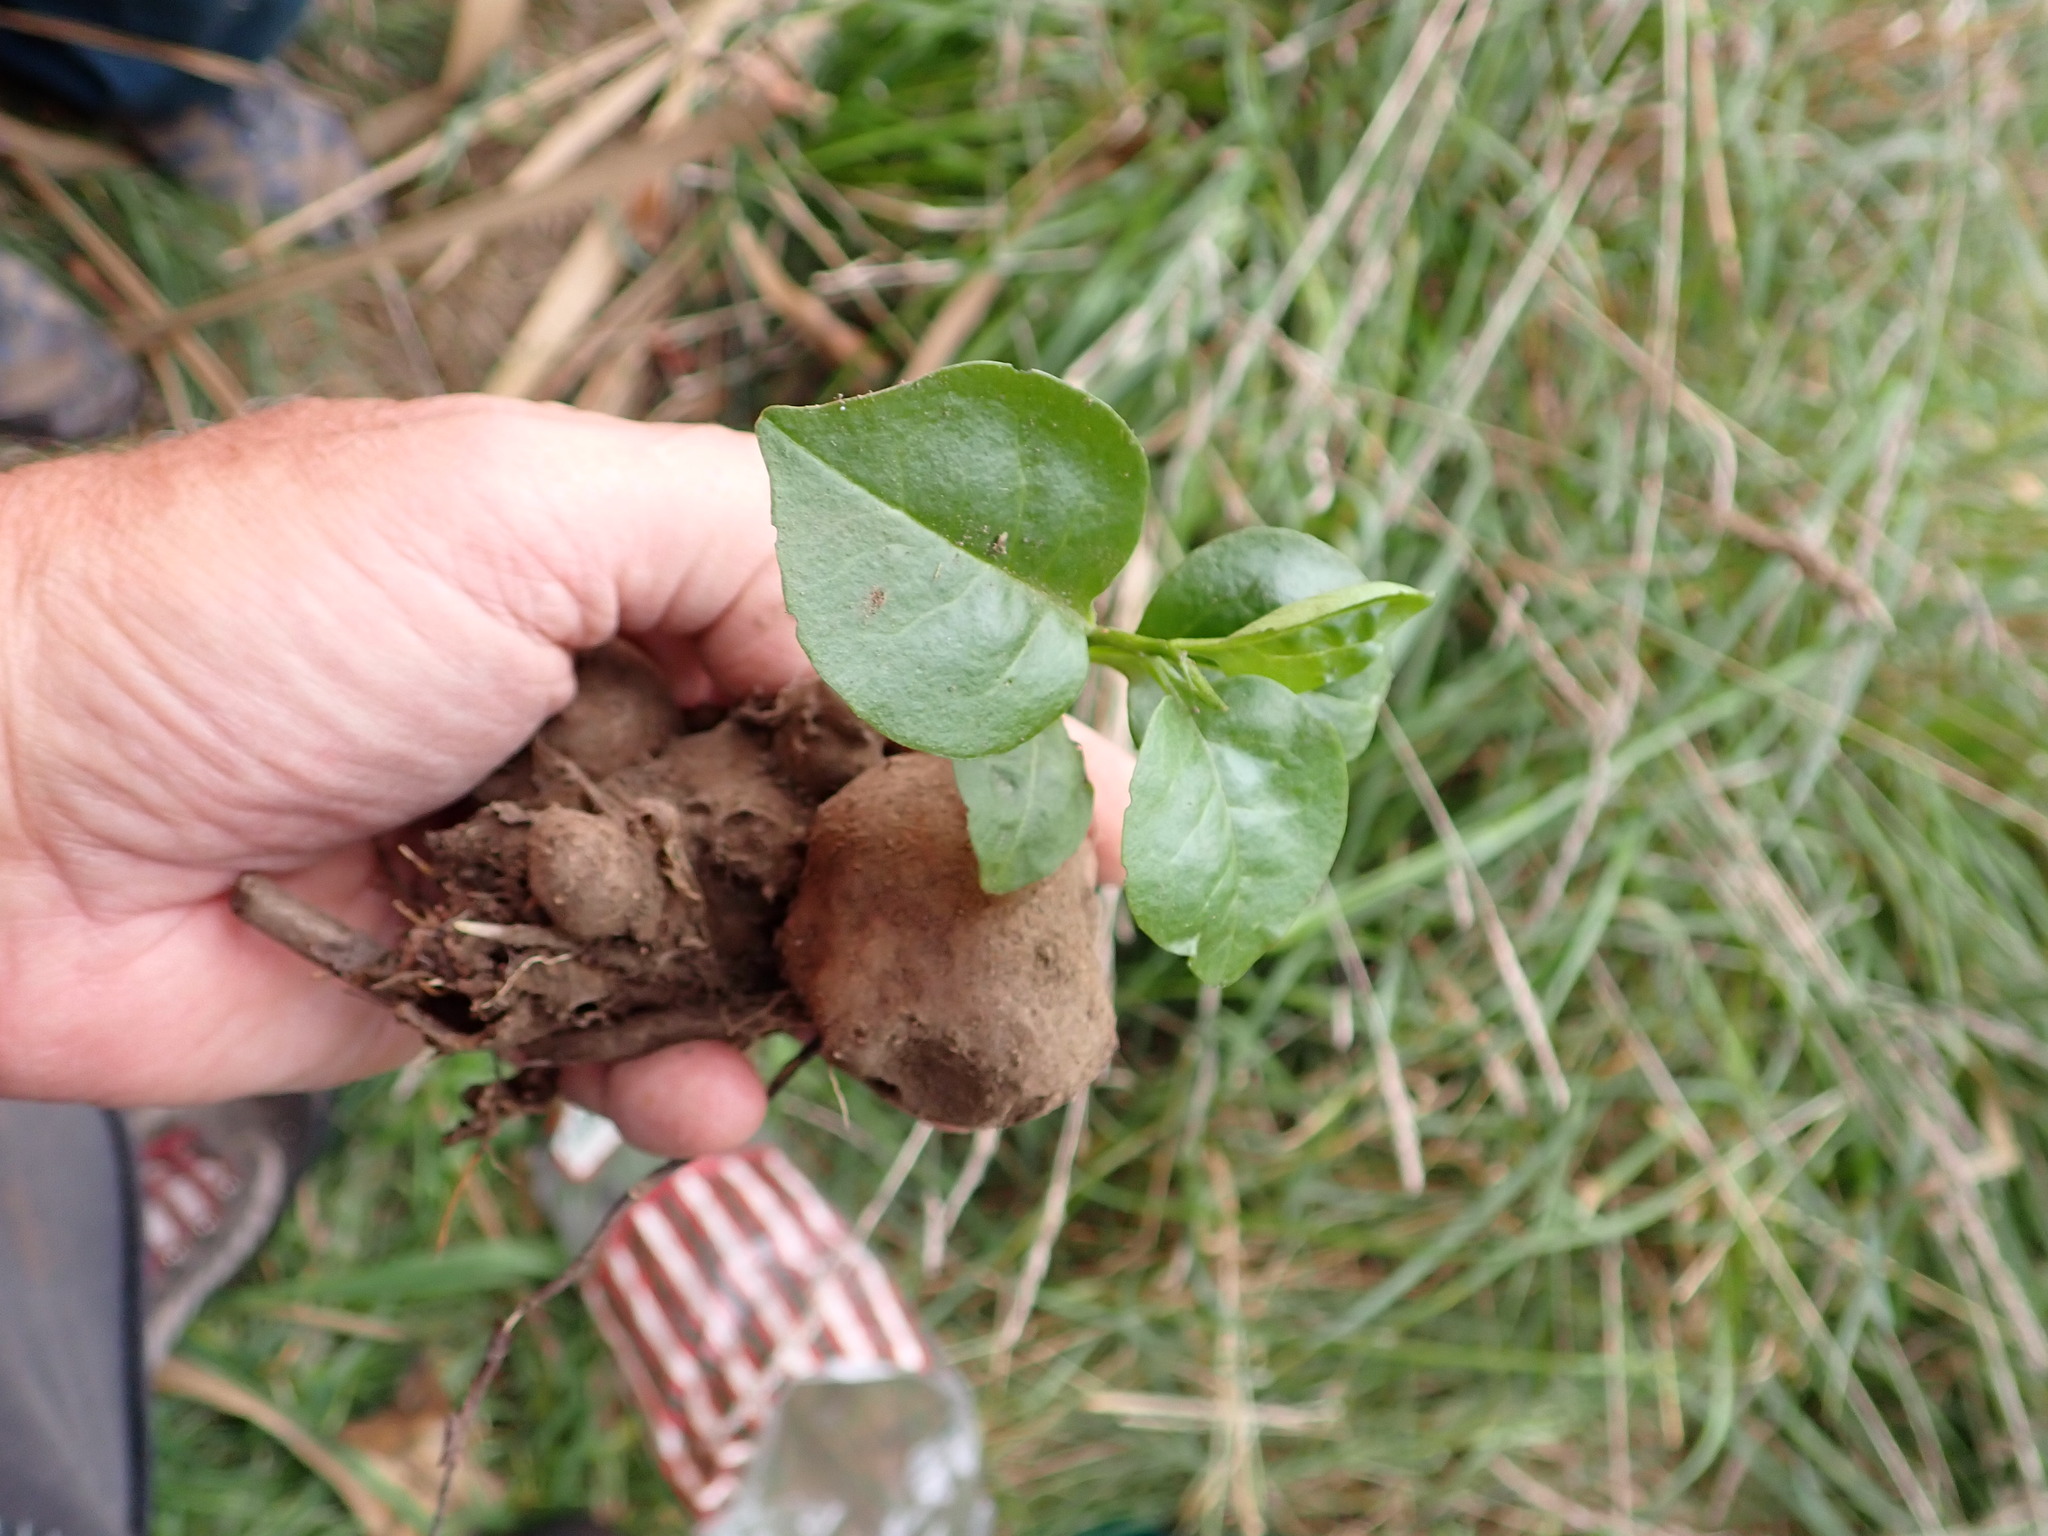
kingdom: Plantae
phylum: Tracheophyta
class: Magnoliopsida
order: Caryophyllales
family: Basellaceae
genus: Anredera
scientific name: Anredera cordifolia
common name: Heartleaf madeiravine
